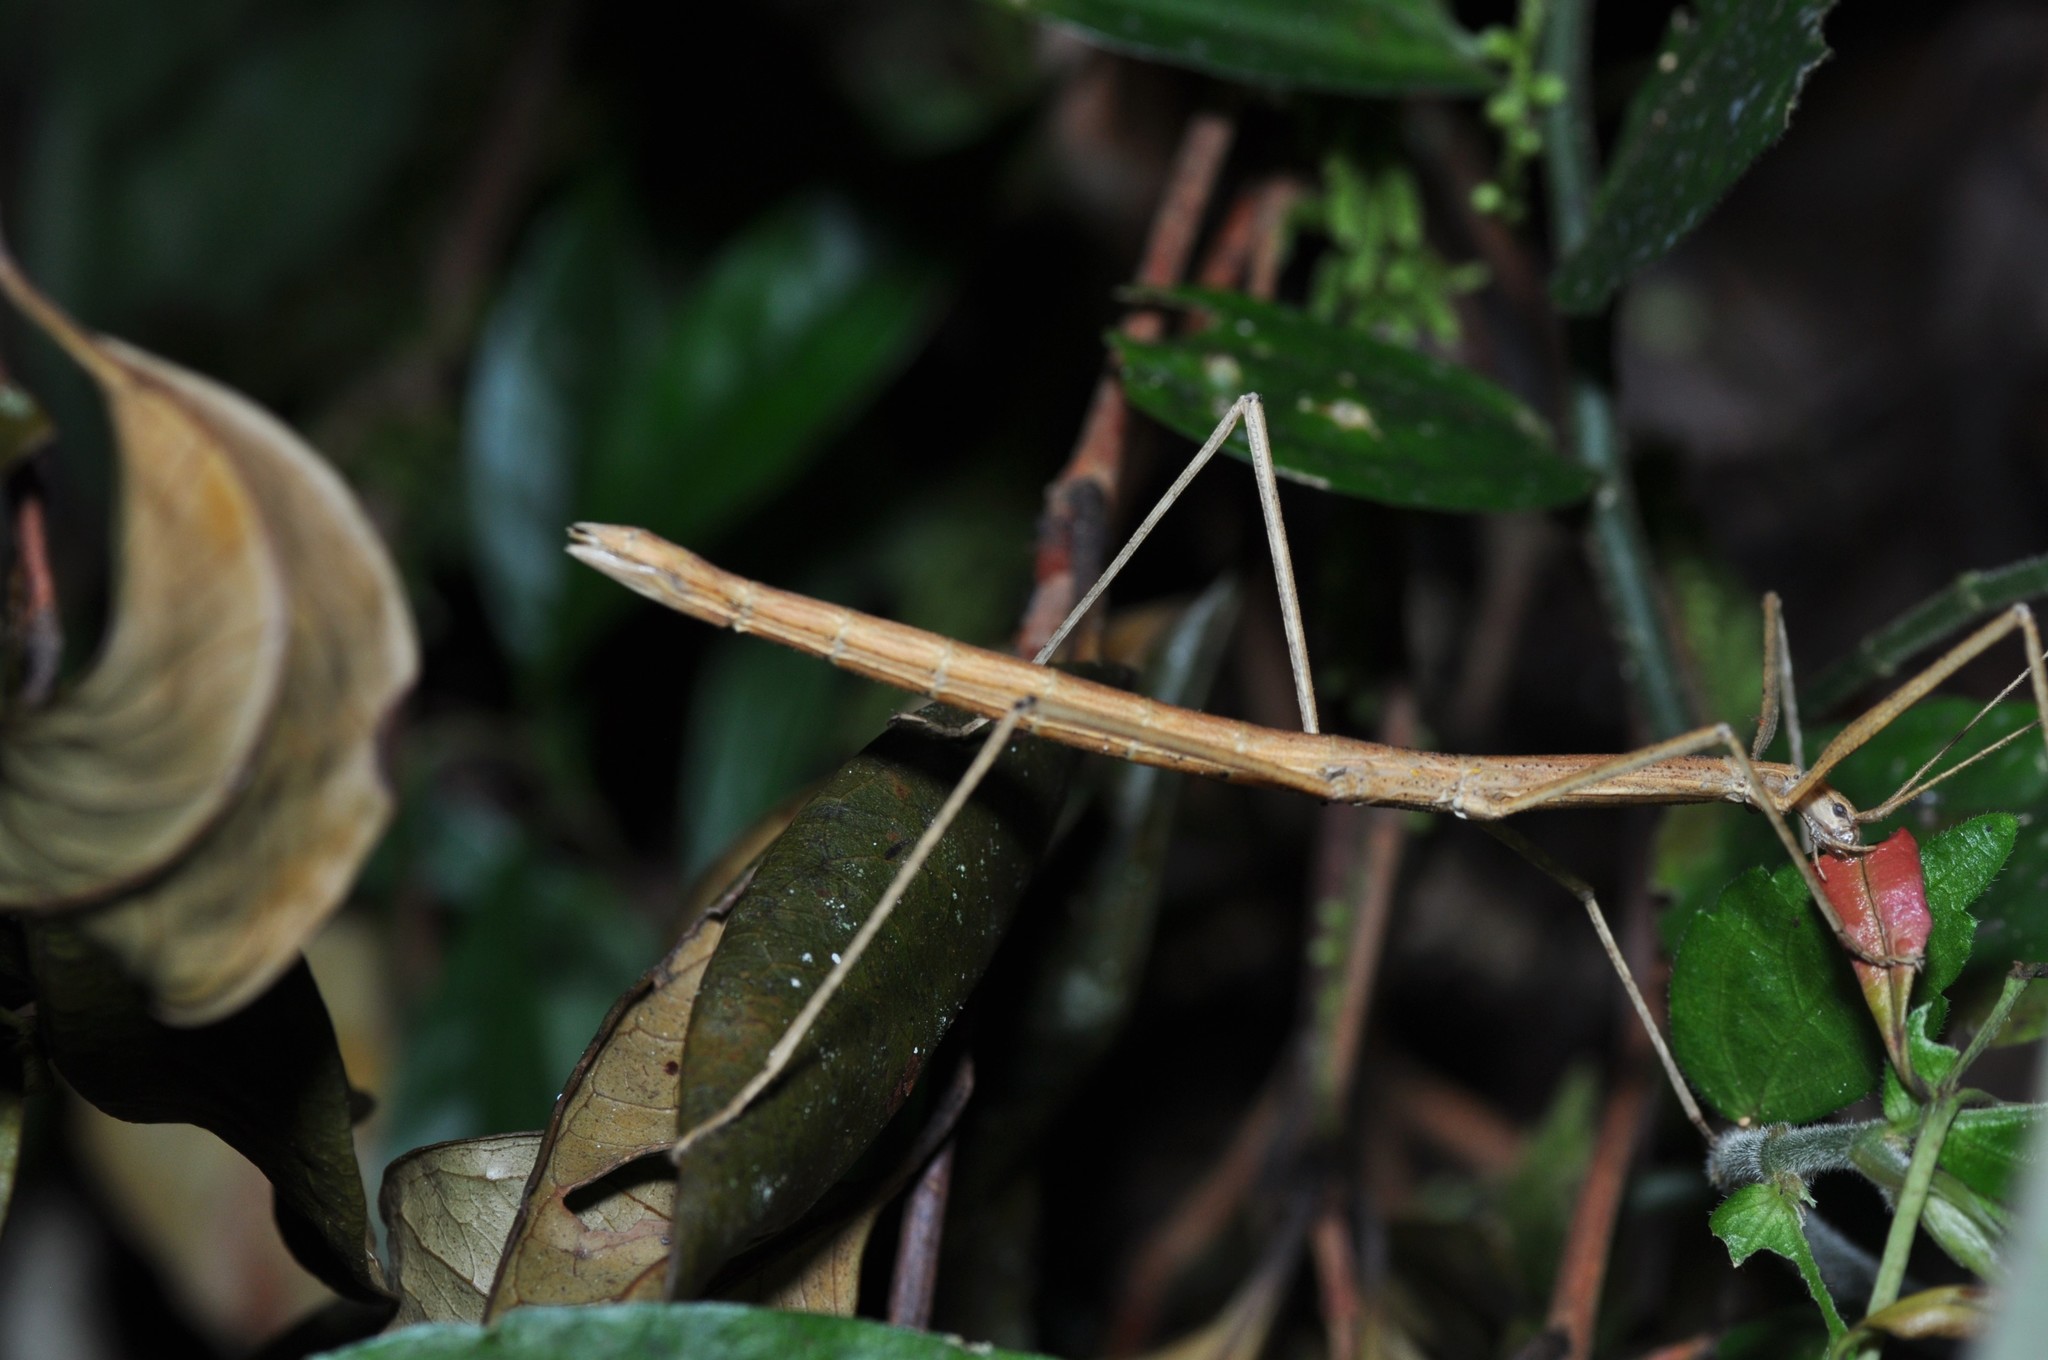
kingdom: Animalia
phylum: Arthropoda
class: Insecta
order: Phasmida
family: Lonchodidae
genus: Acacus
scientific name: Acacus sumatranus
